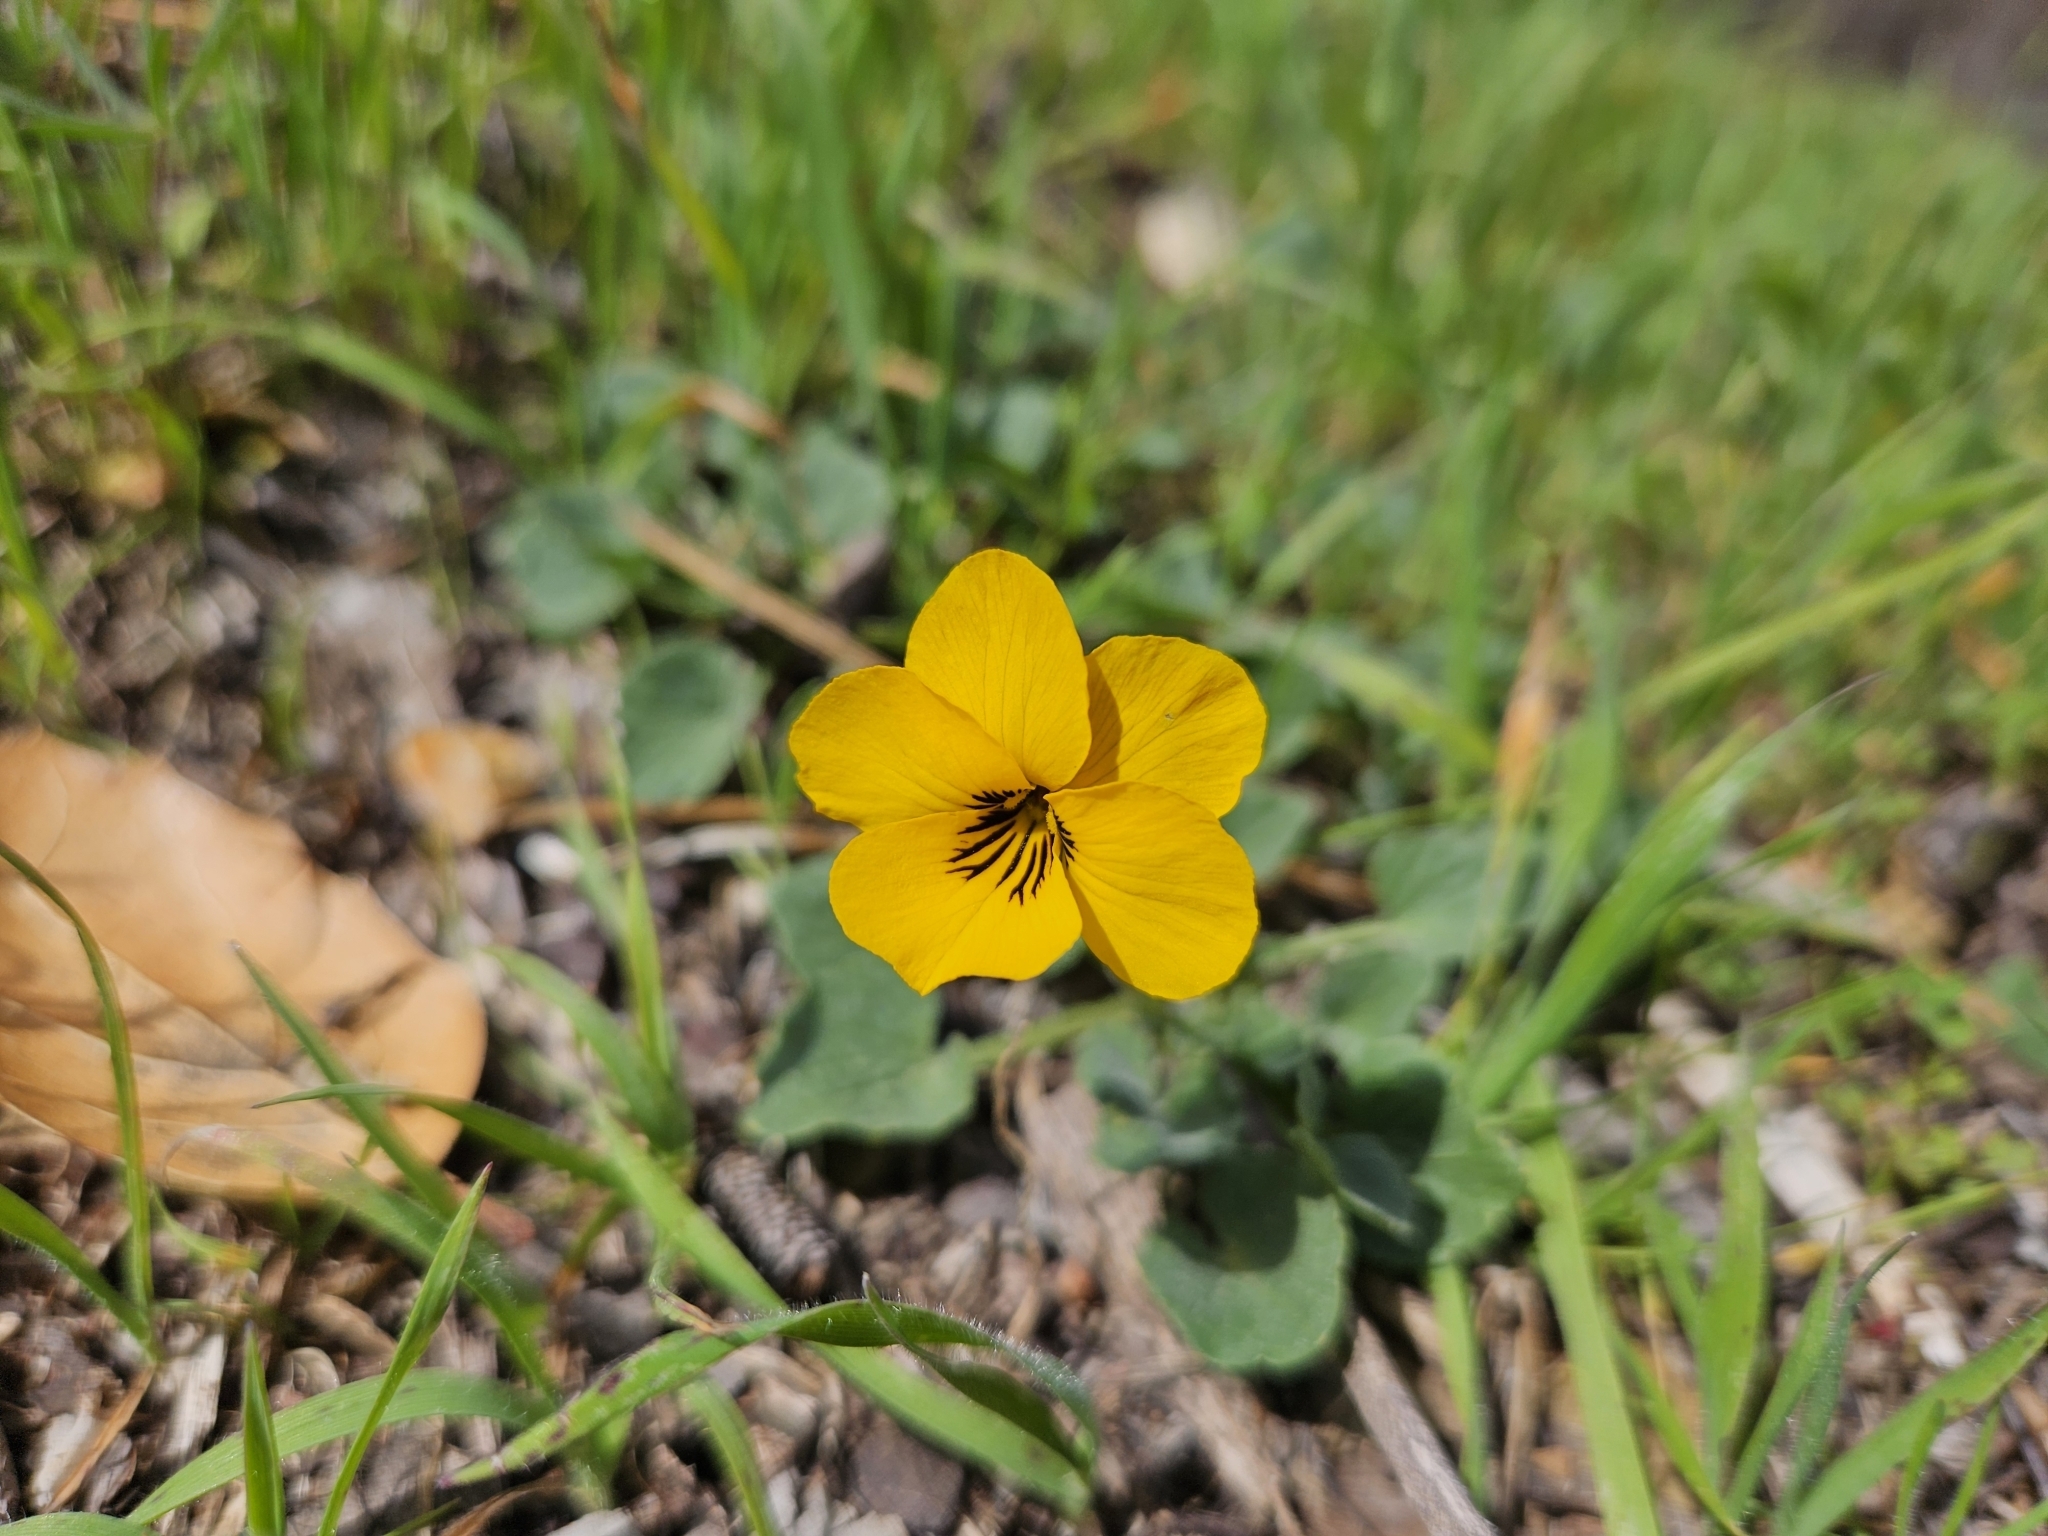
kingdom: Plantae
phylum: Tracheophyta
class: Magnoliopsida
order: Malpighiales
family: Violaceae
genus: Viola
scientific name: Viola pedunculata
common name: California golden violet
